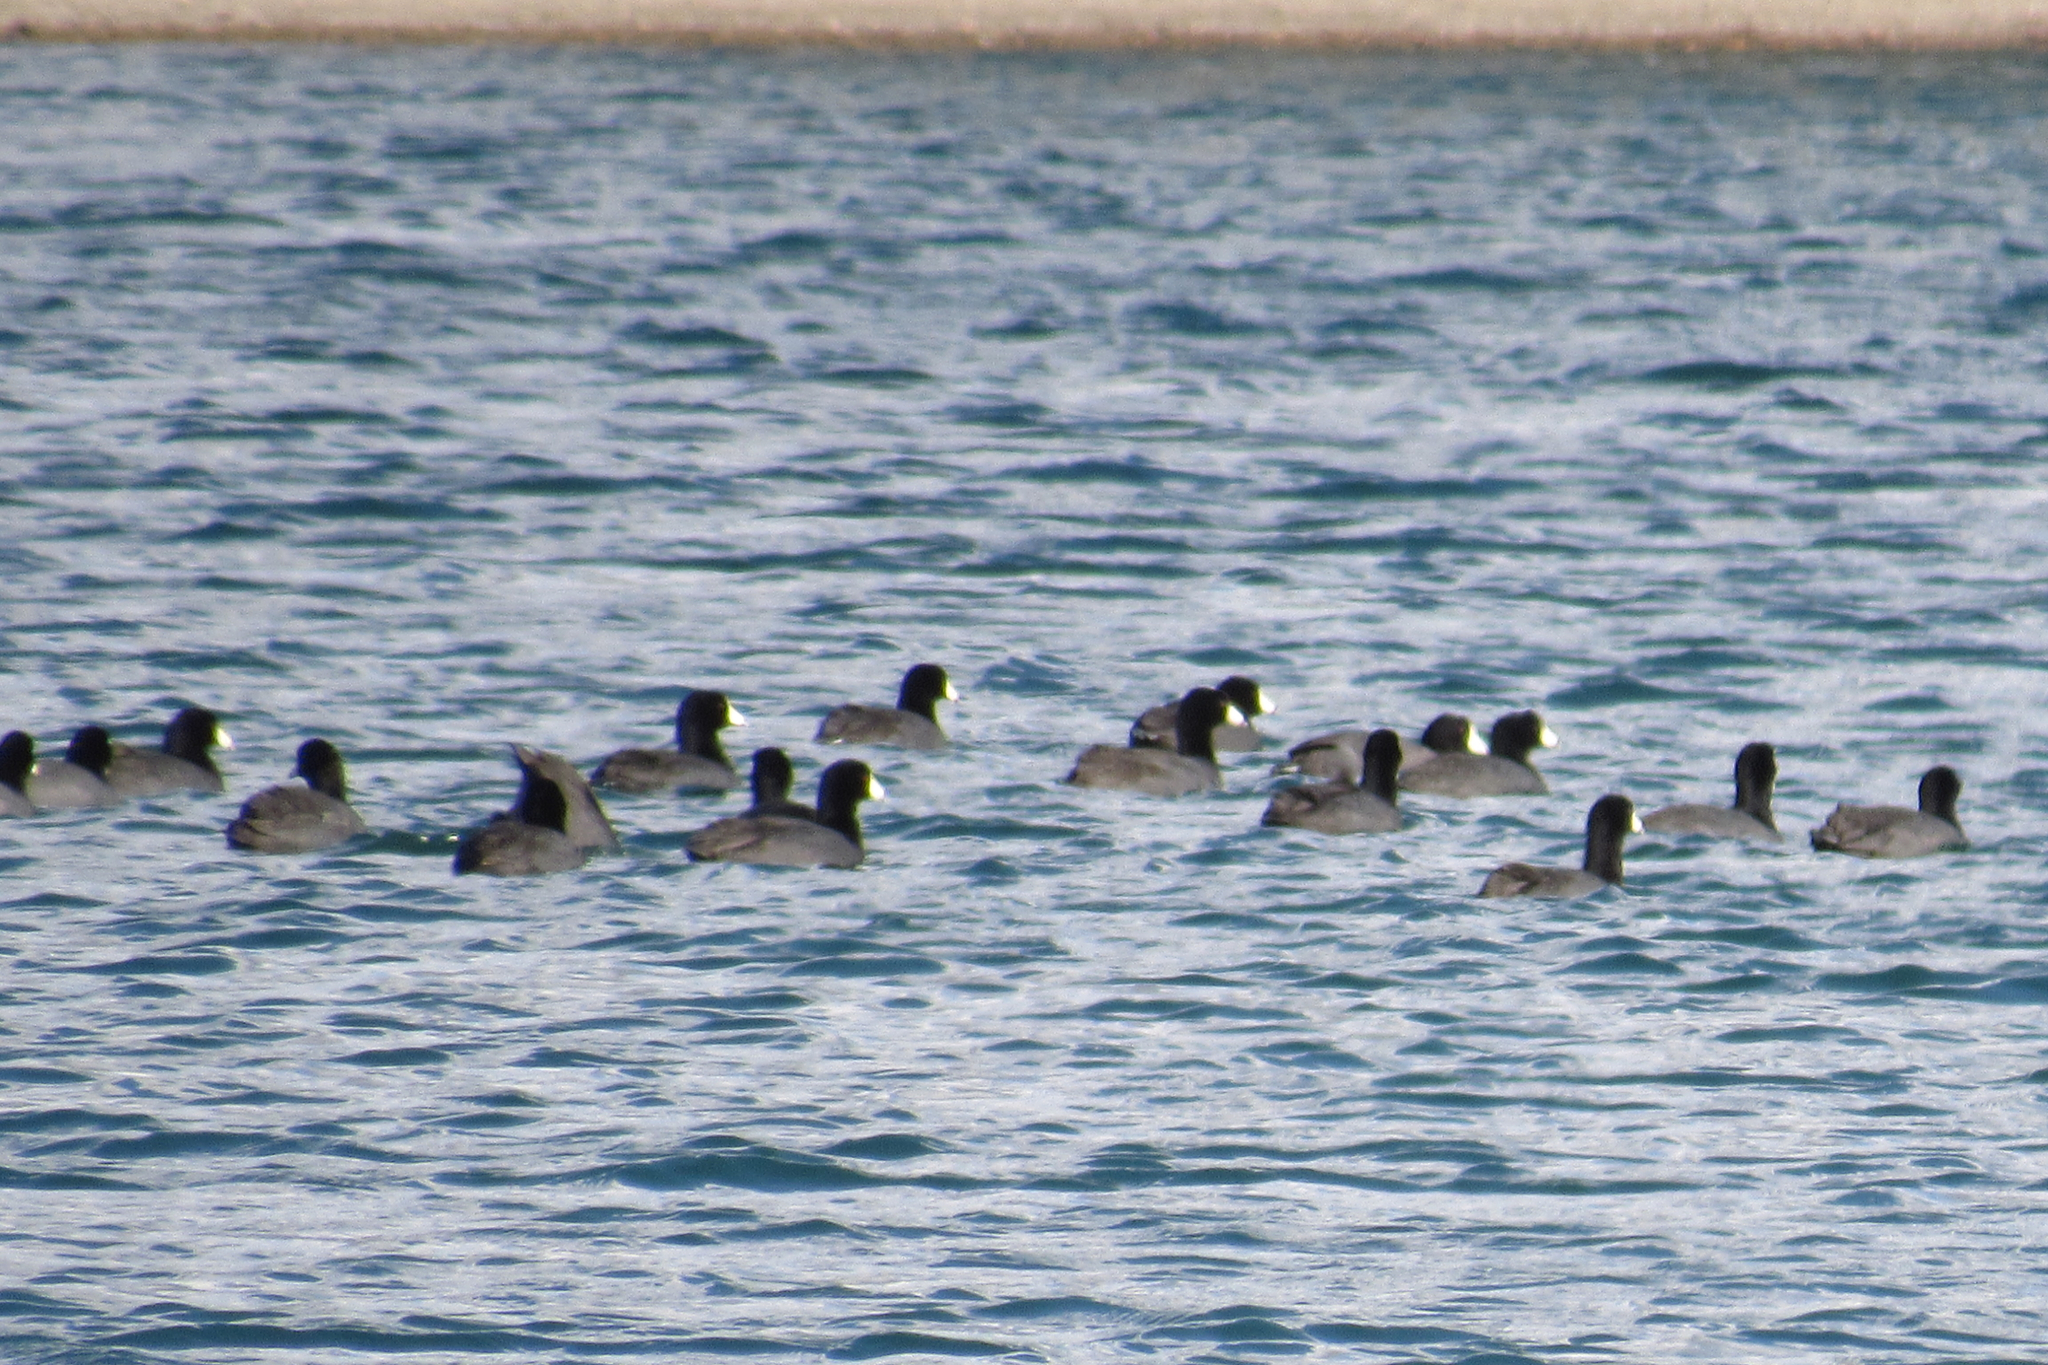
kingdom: Animalia
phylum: Chordata
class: Aves
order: Gruiformes
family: Rallidae
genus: Fulica
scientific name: Fulica americana
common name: American coot
